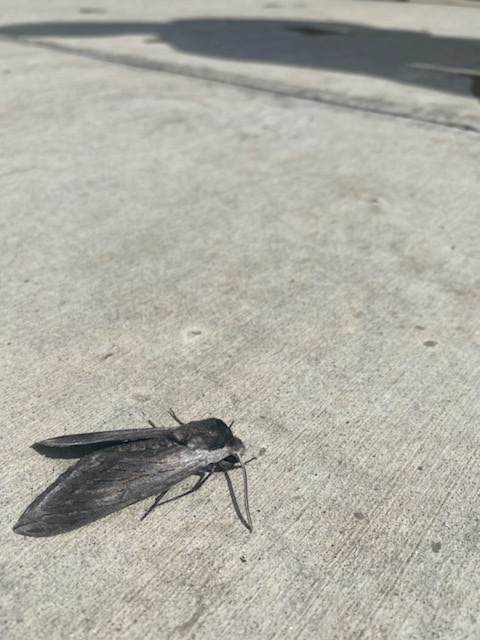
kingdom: Animalia
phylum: Arthropoda
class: Insecta
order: Lepidoptera
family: Sphingidae
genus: Sphinx
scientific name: Sphinx perelegans
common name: Elegant sphinx
